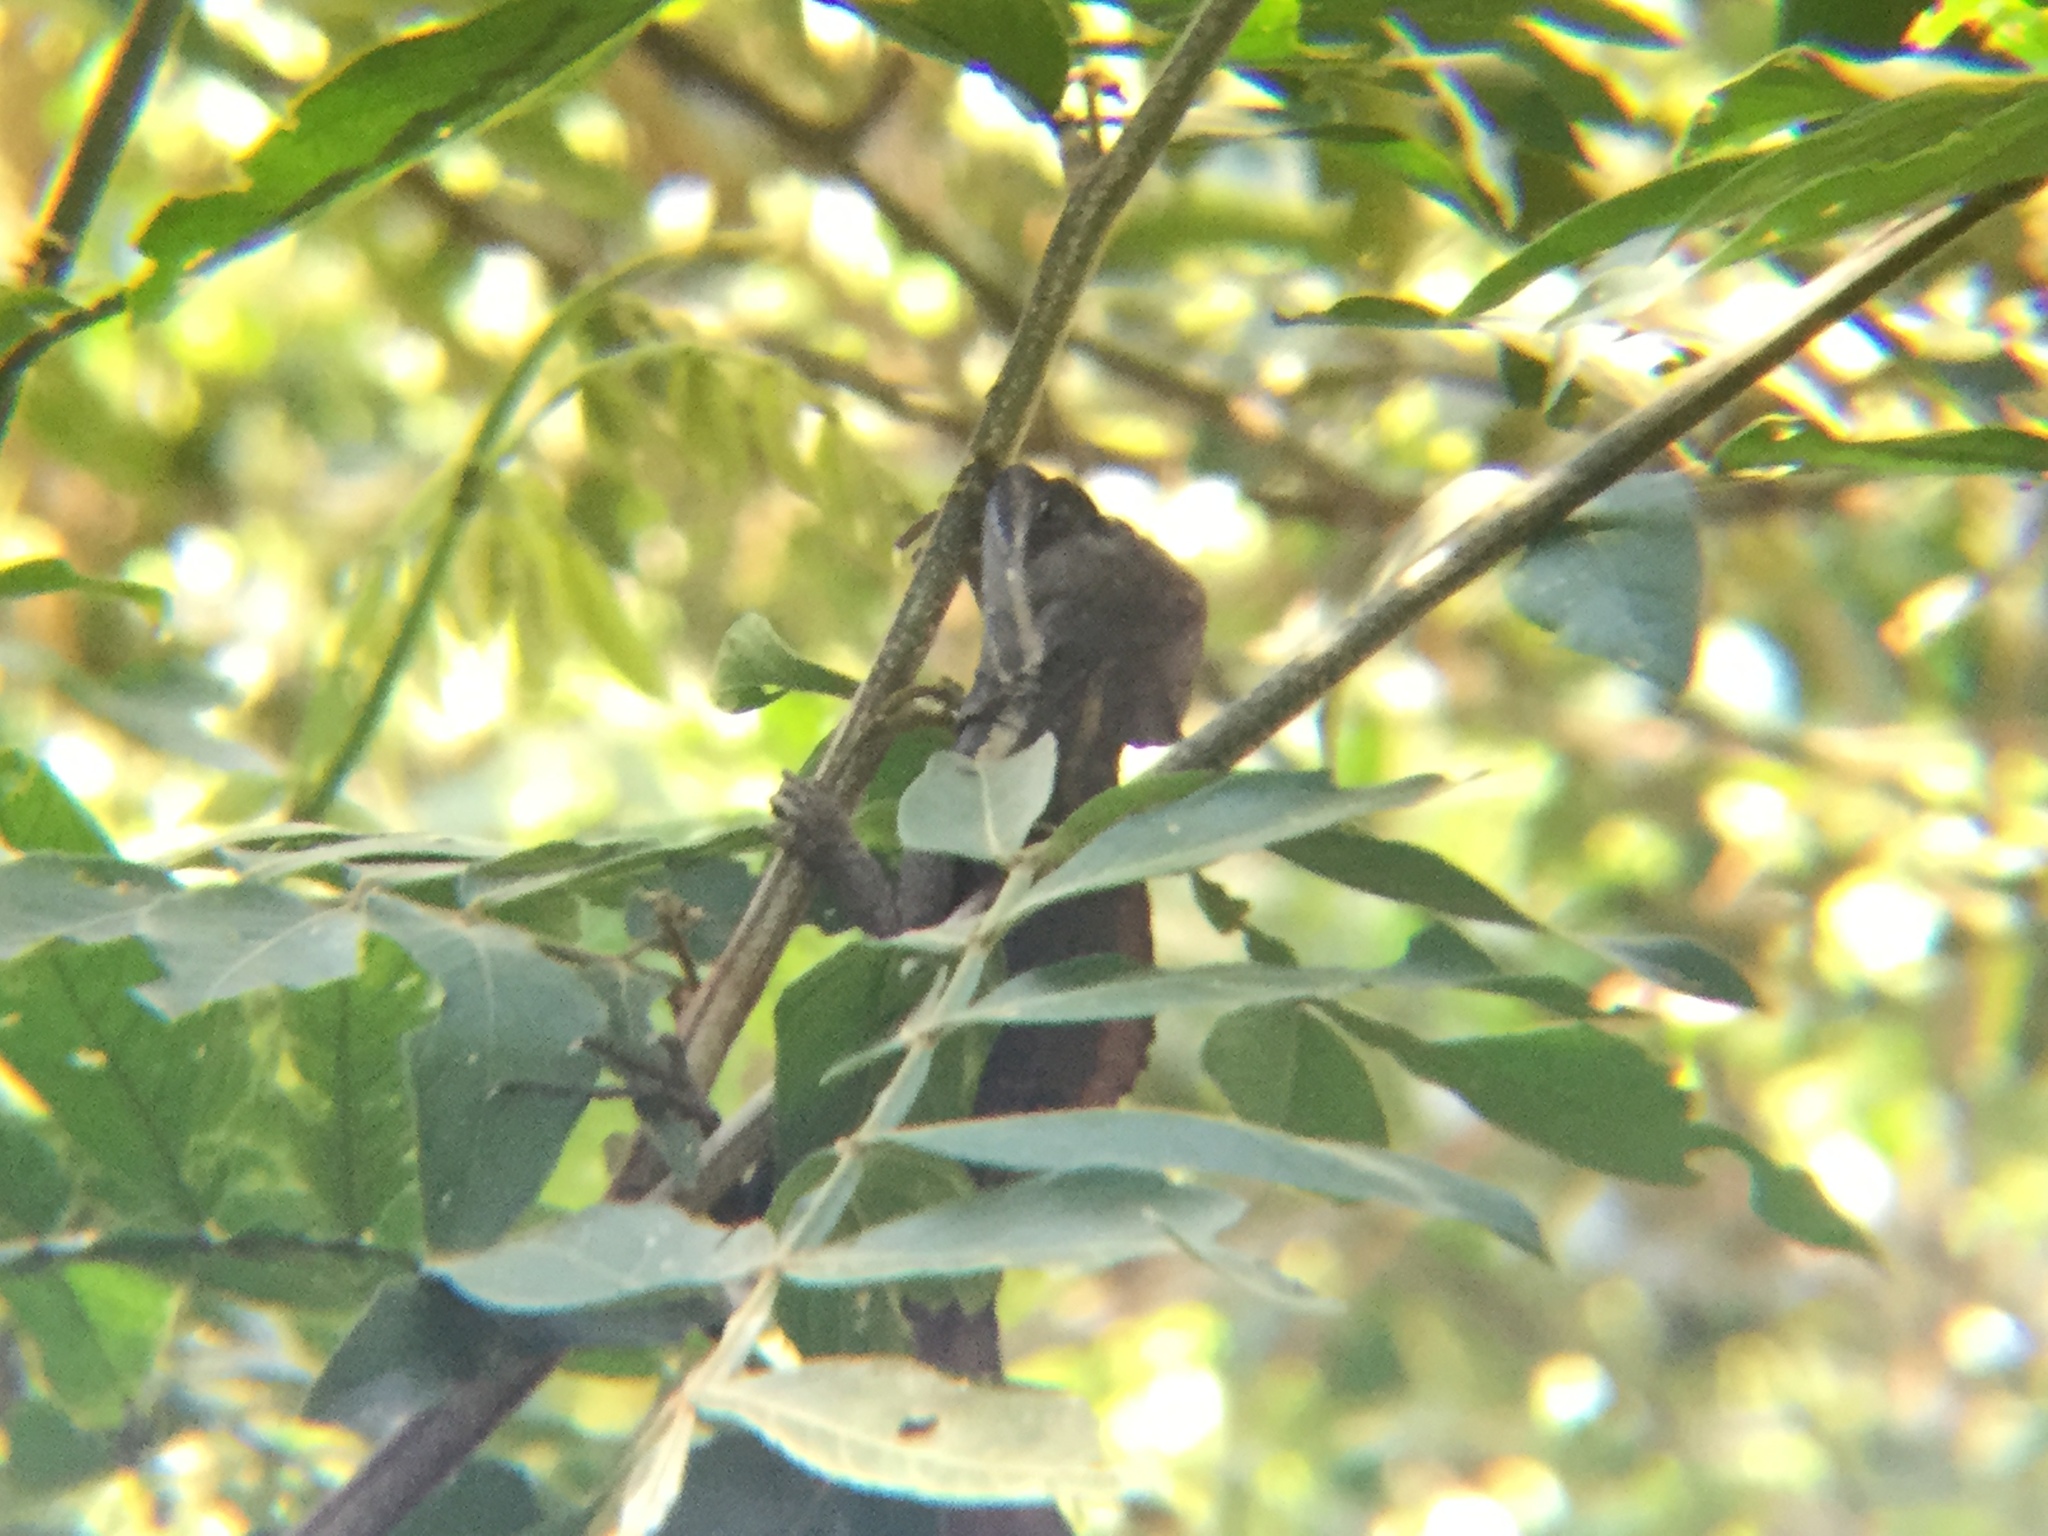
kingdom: Animalia
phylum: Chordata
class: Squamata
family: Corytophanidae
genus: Basiliscus
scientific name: Basiliscus vittatus
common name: Brown basilisk
